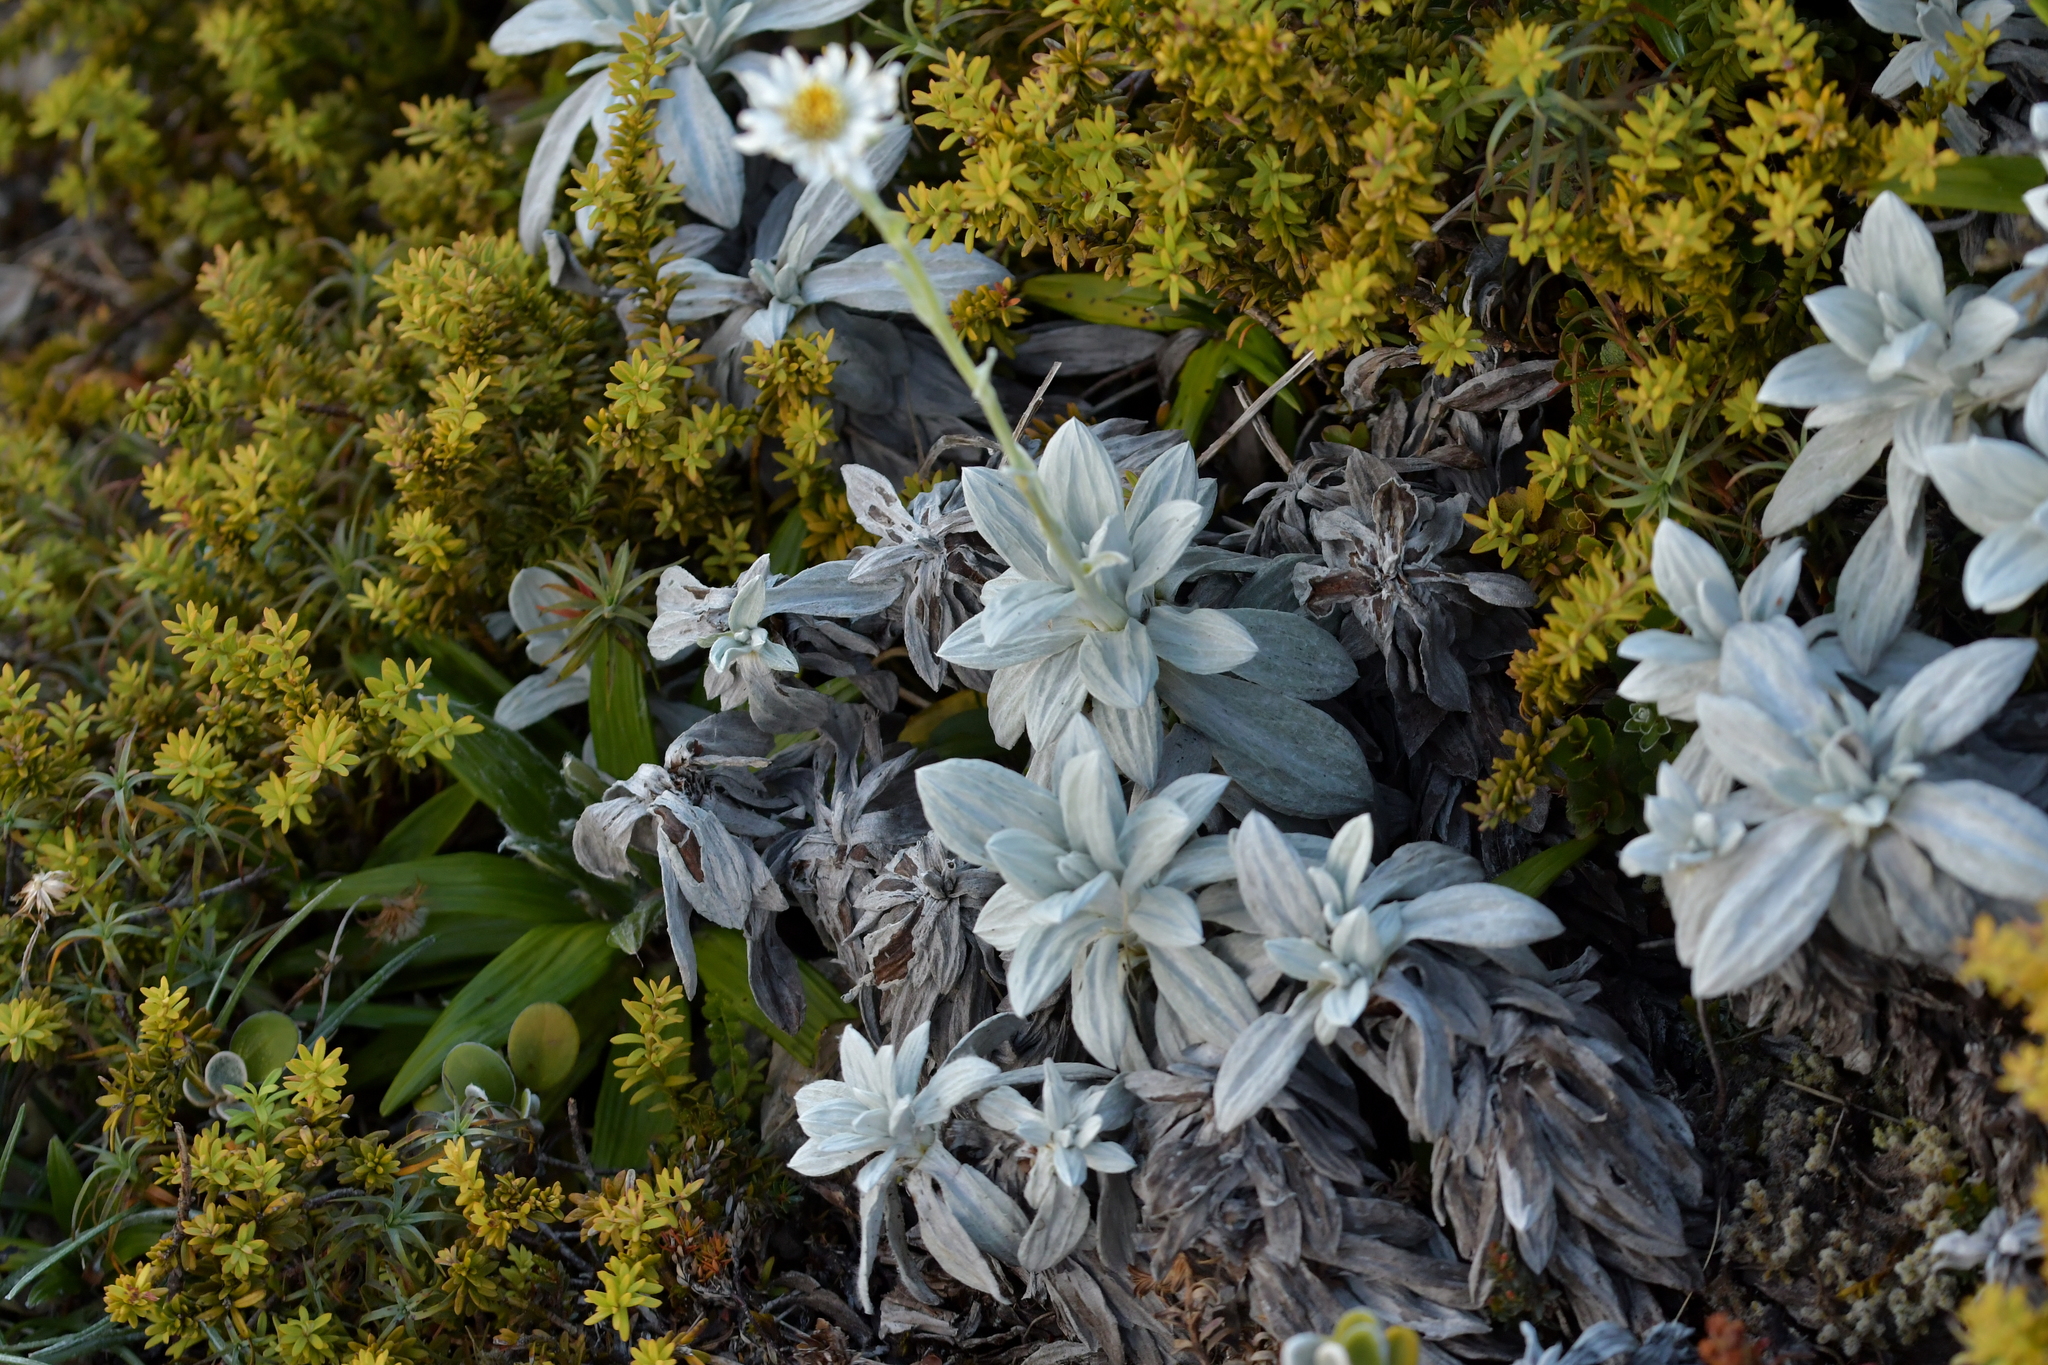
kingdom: Plantae
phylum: Tracheophyta
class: Magnoliopsida
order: Asterales
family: Asteraceae
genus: Celmisia
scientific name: Celmisia incana
